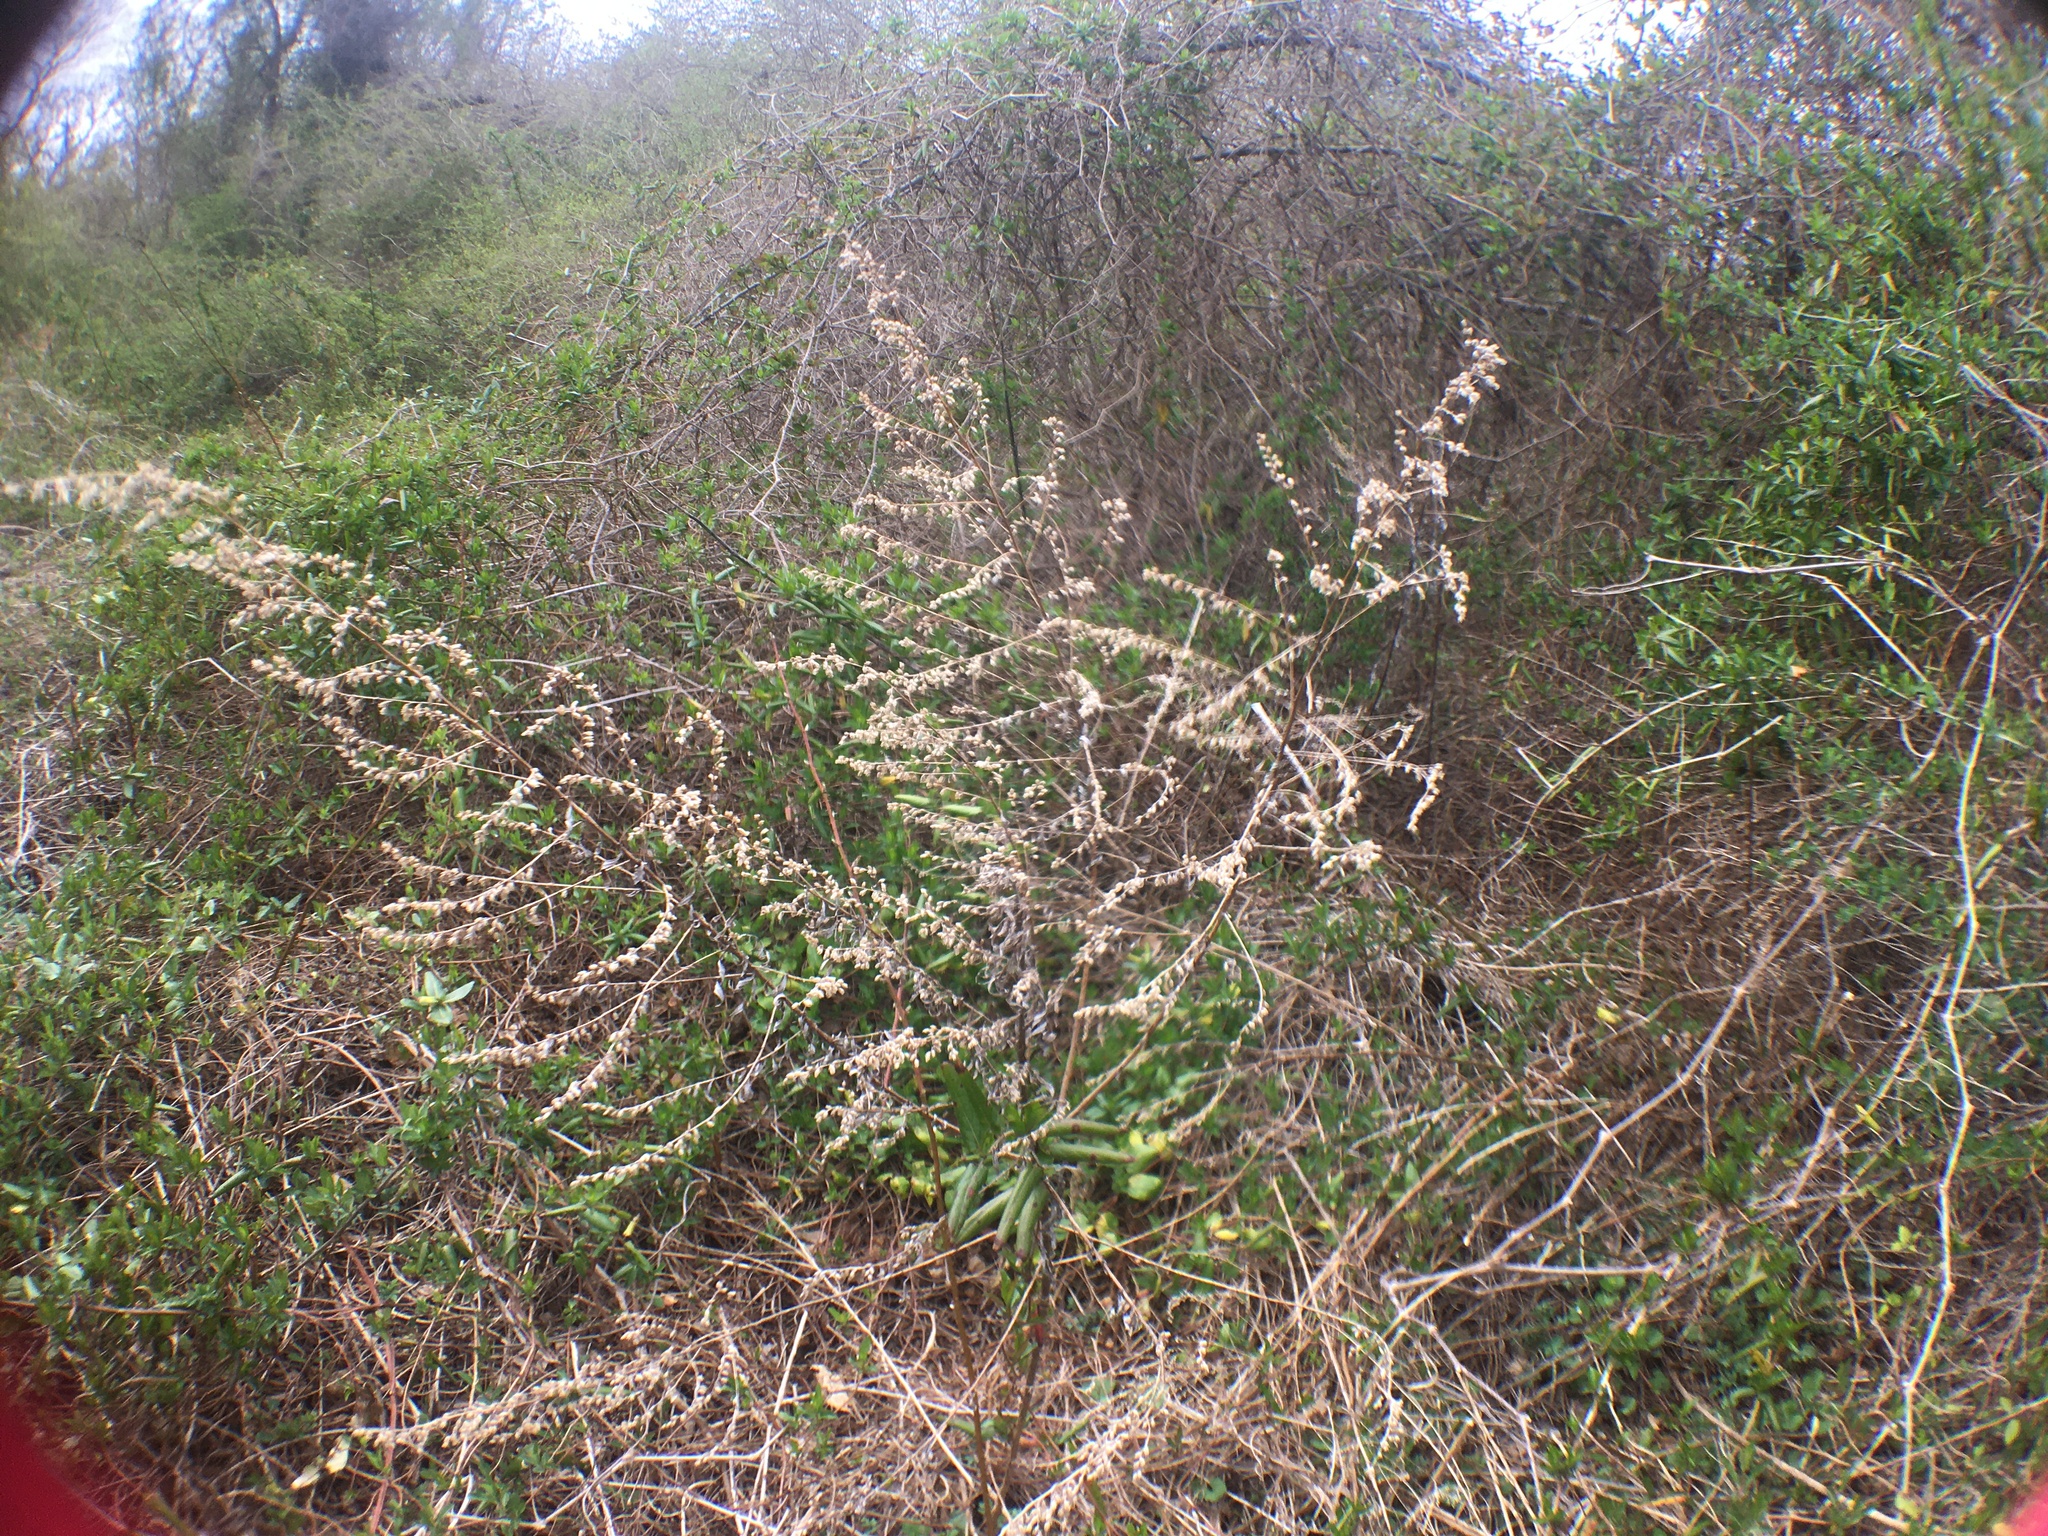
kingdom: Plantae
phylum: Tracheophyta
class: Magnoliopsida
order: Asterales
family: Asteraceae
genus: Artemisia
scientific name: Artemisia vulgaris
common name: Mugwort
